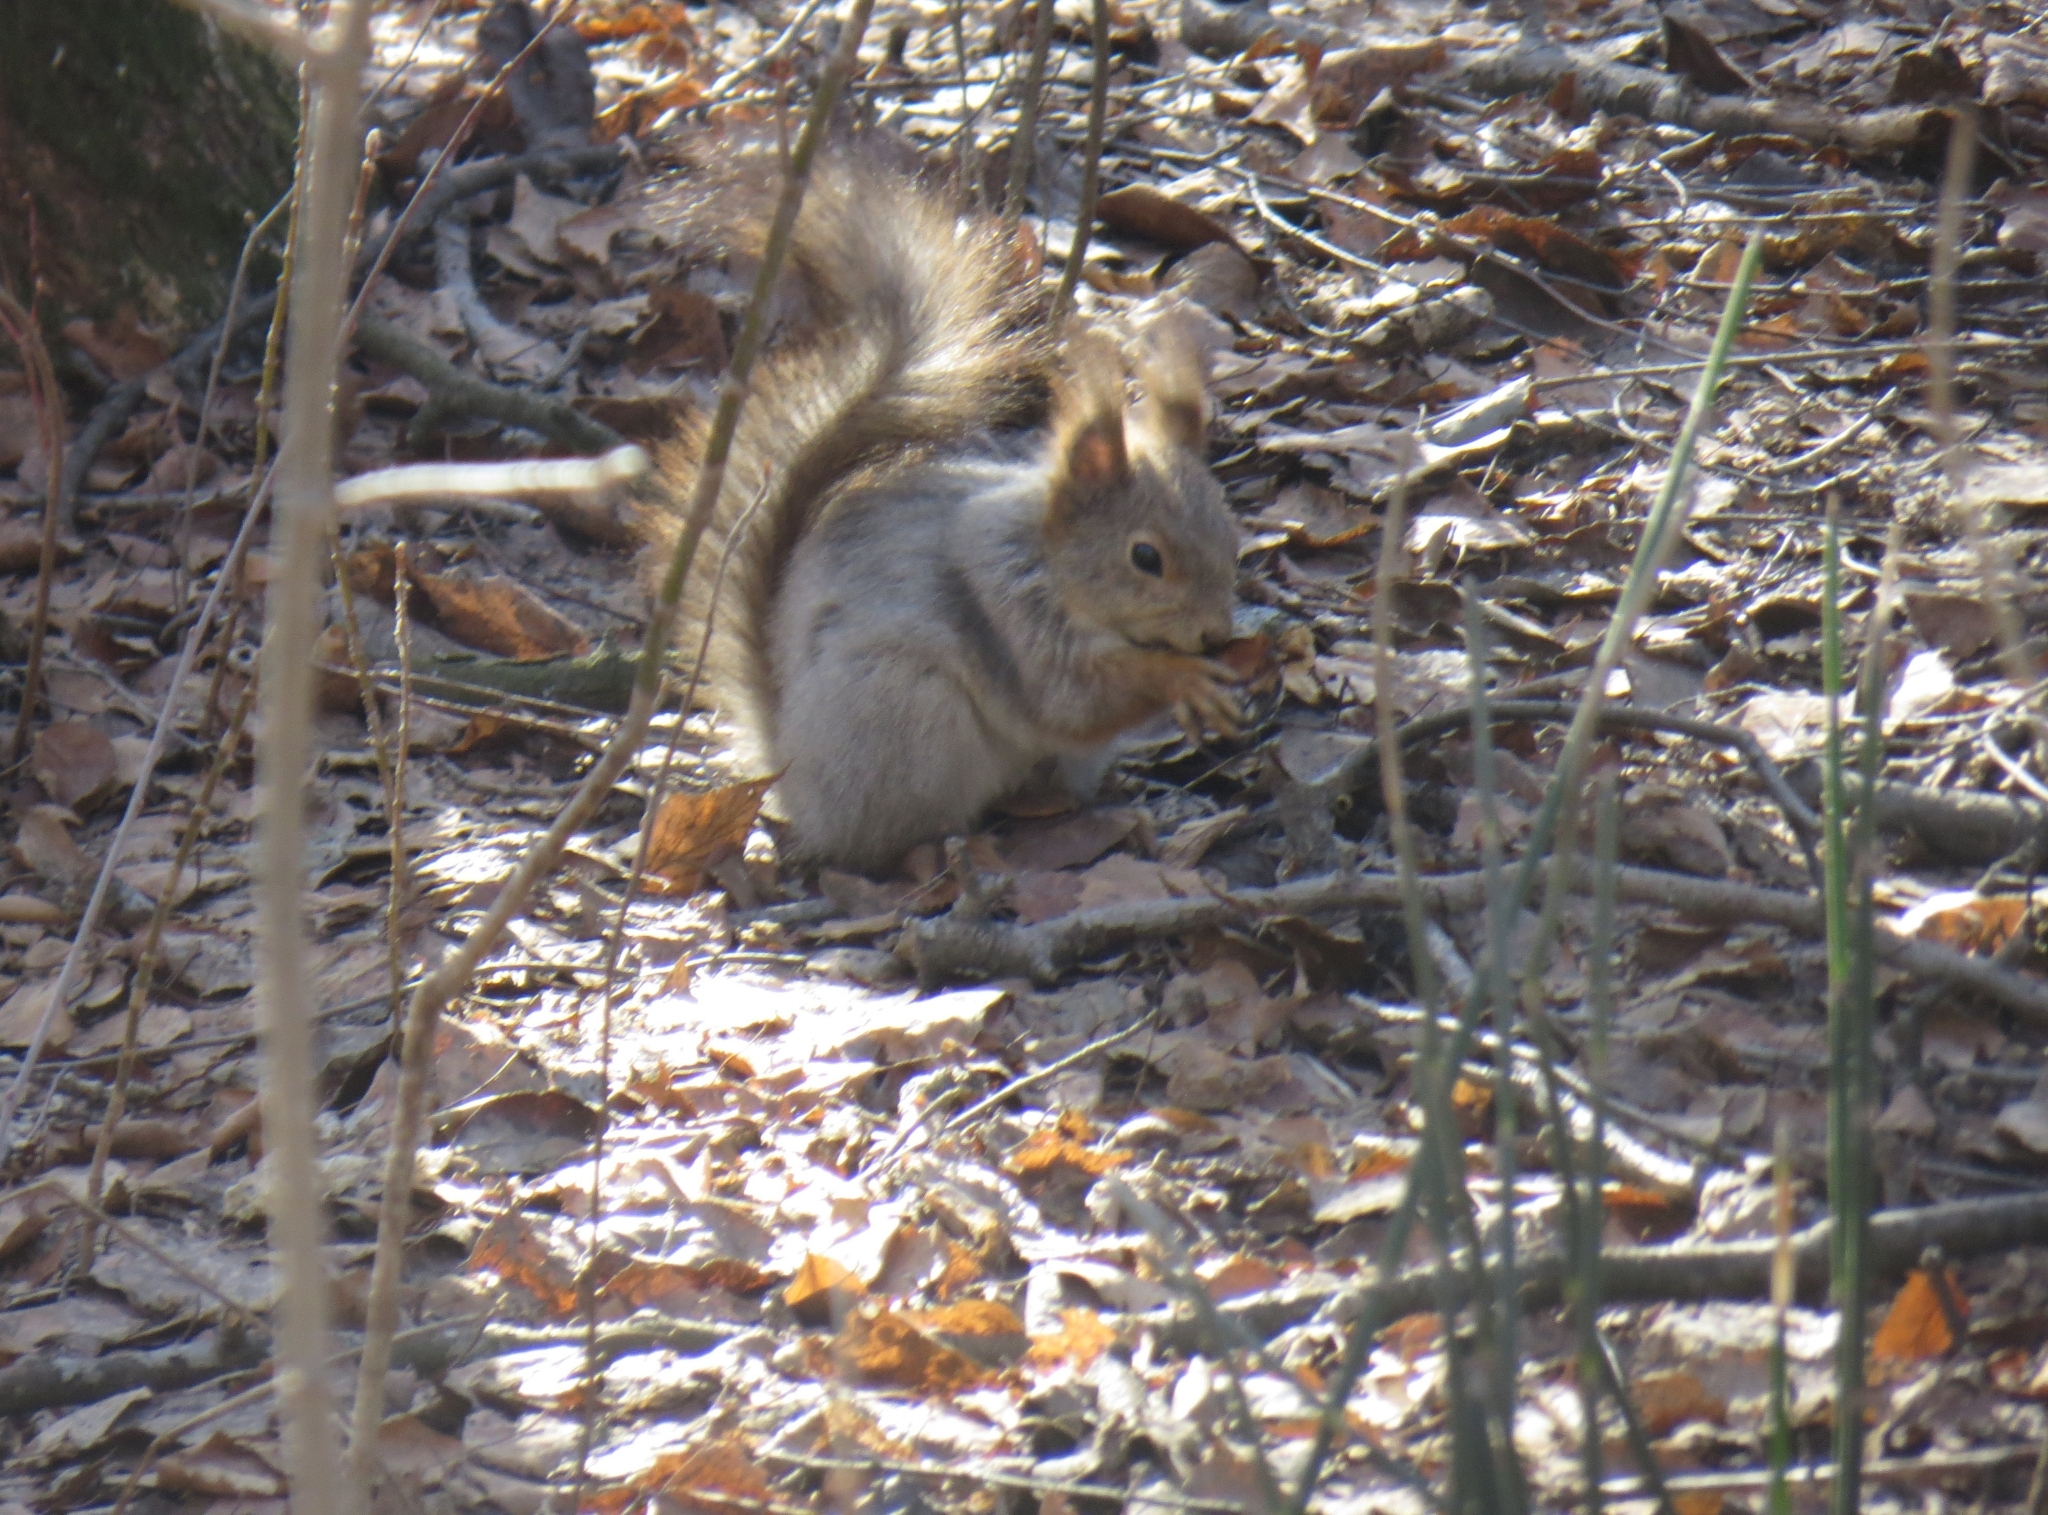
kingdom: Animalia
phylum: Chordata
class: Mammalia
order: Rodentia
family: Sciuridae
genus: Sciurus
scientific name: Sciurus vulgaris
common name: Eurasian red squirrel
